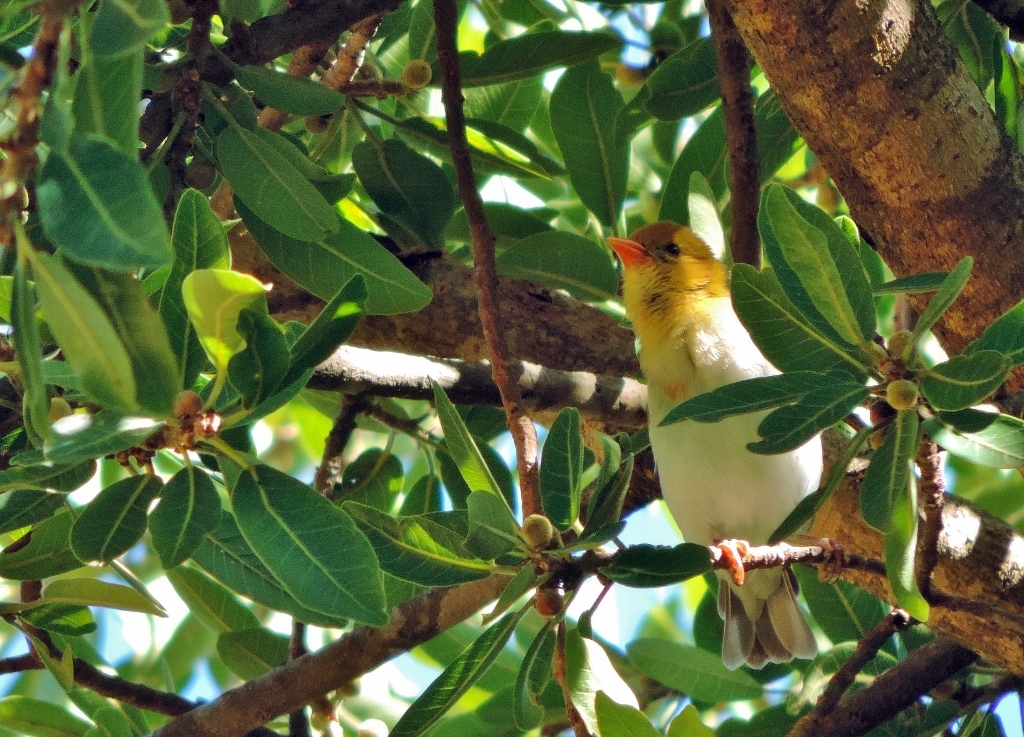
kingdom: Animalia
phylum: Chordata
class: Aves
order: Passeriformes
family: Ploceidae
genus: Anaplectes
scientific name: Anaplectes rubriceps
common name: Red-headed weaver
